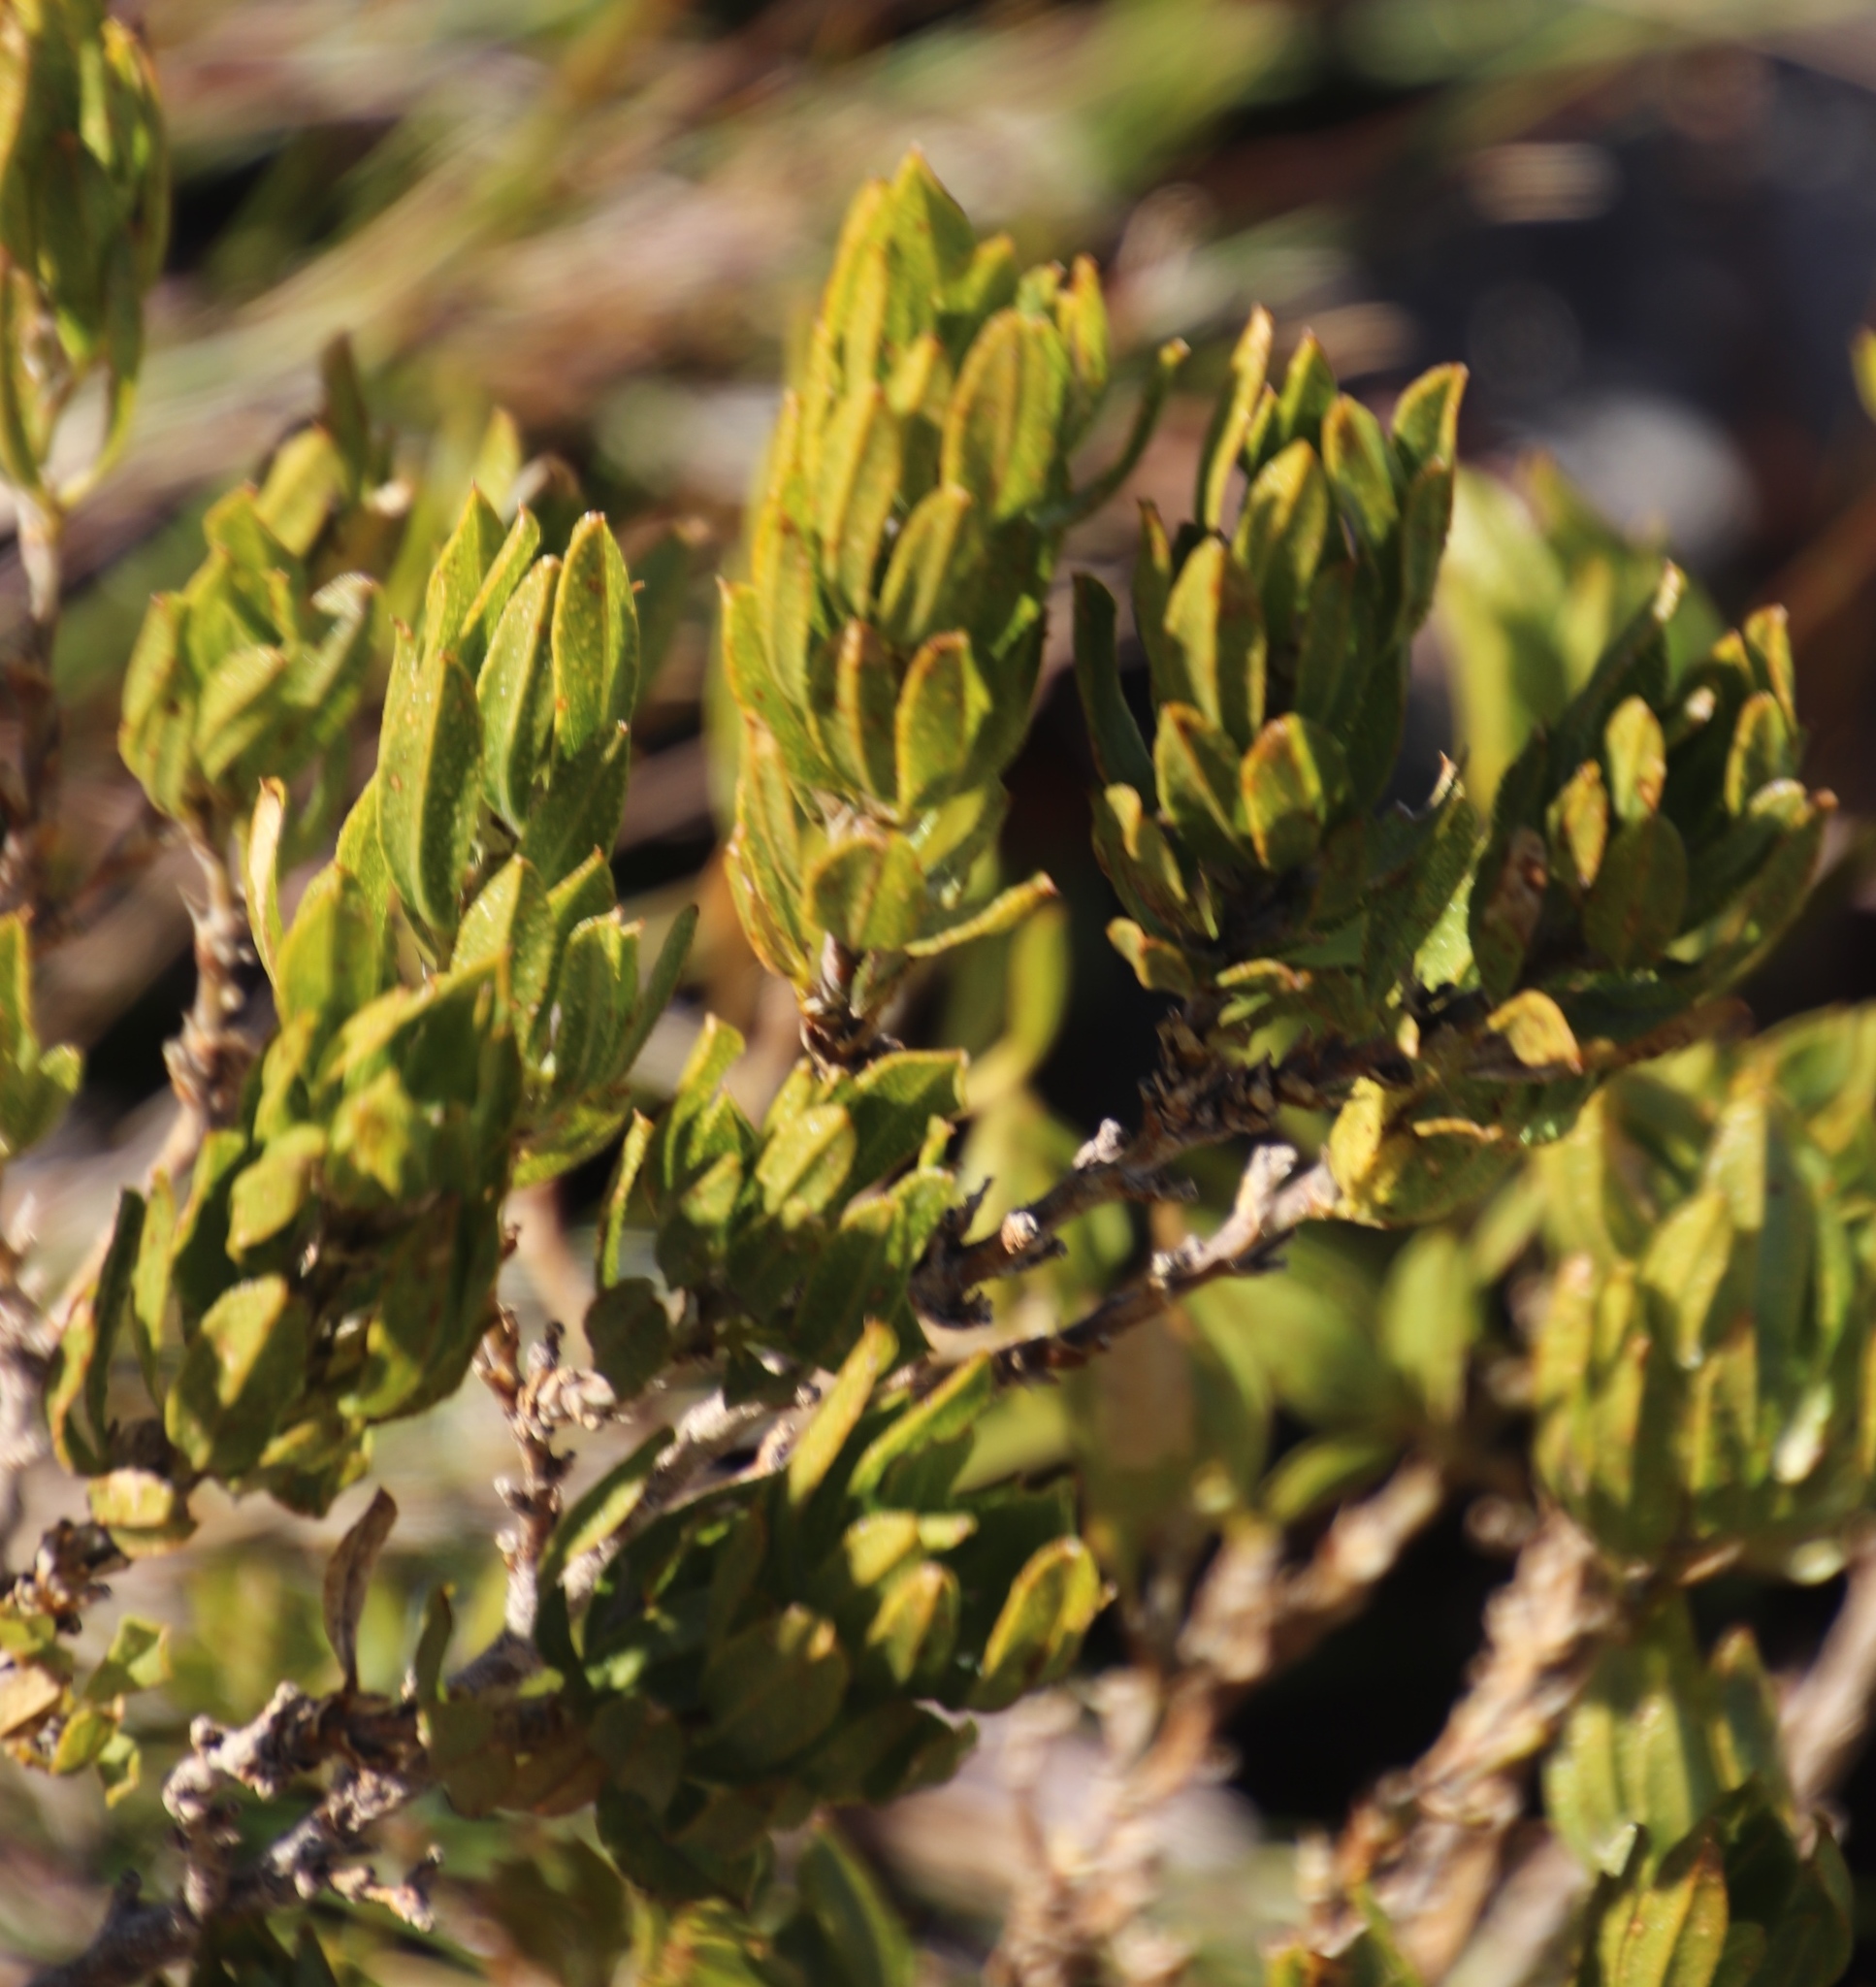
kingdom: Plantae
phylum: Tracheophyta
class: Magnoliopsida
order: Fabales
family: Fabaceae
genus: Psoralea
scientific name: Psoralea mundiana
